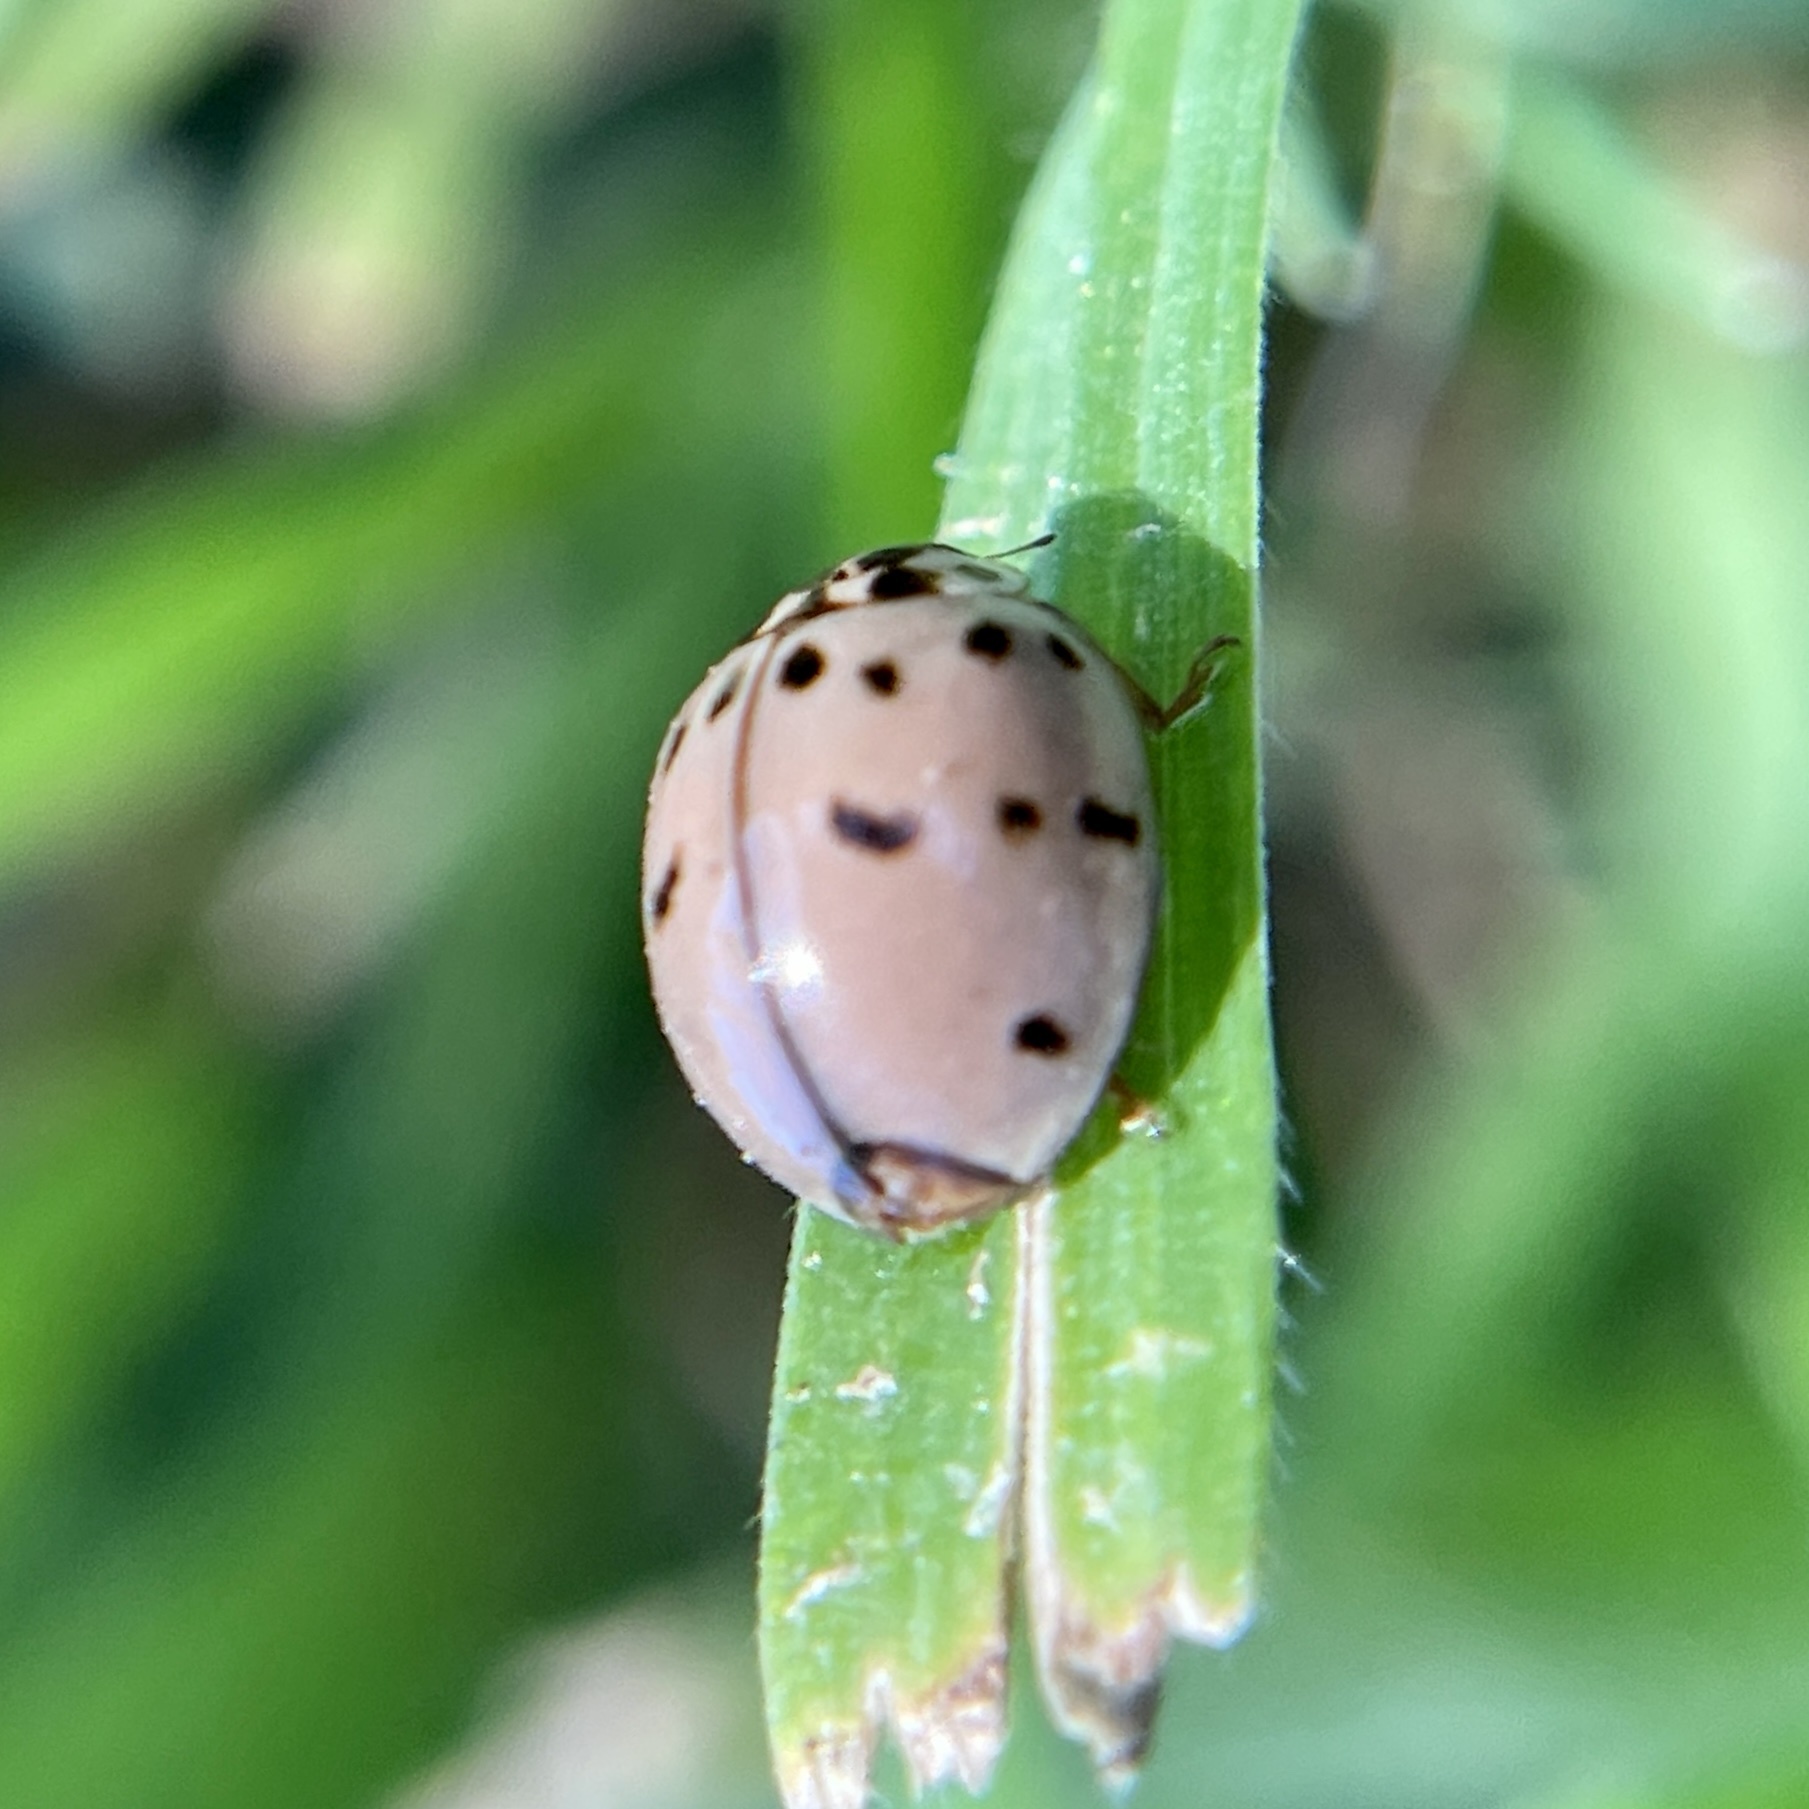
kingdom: Animalia
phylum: Arthropoda
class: Insecta
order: Coleoptera
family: Coccinellidae
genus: Olla
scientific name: Olla v-nigrum
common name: Ashy gray lady beetle
